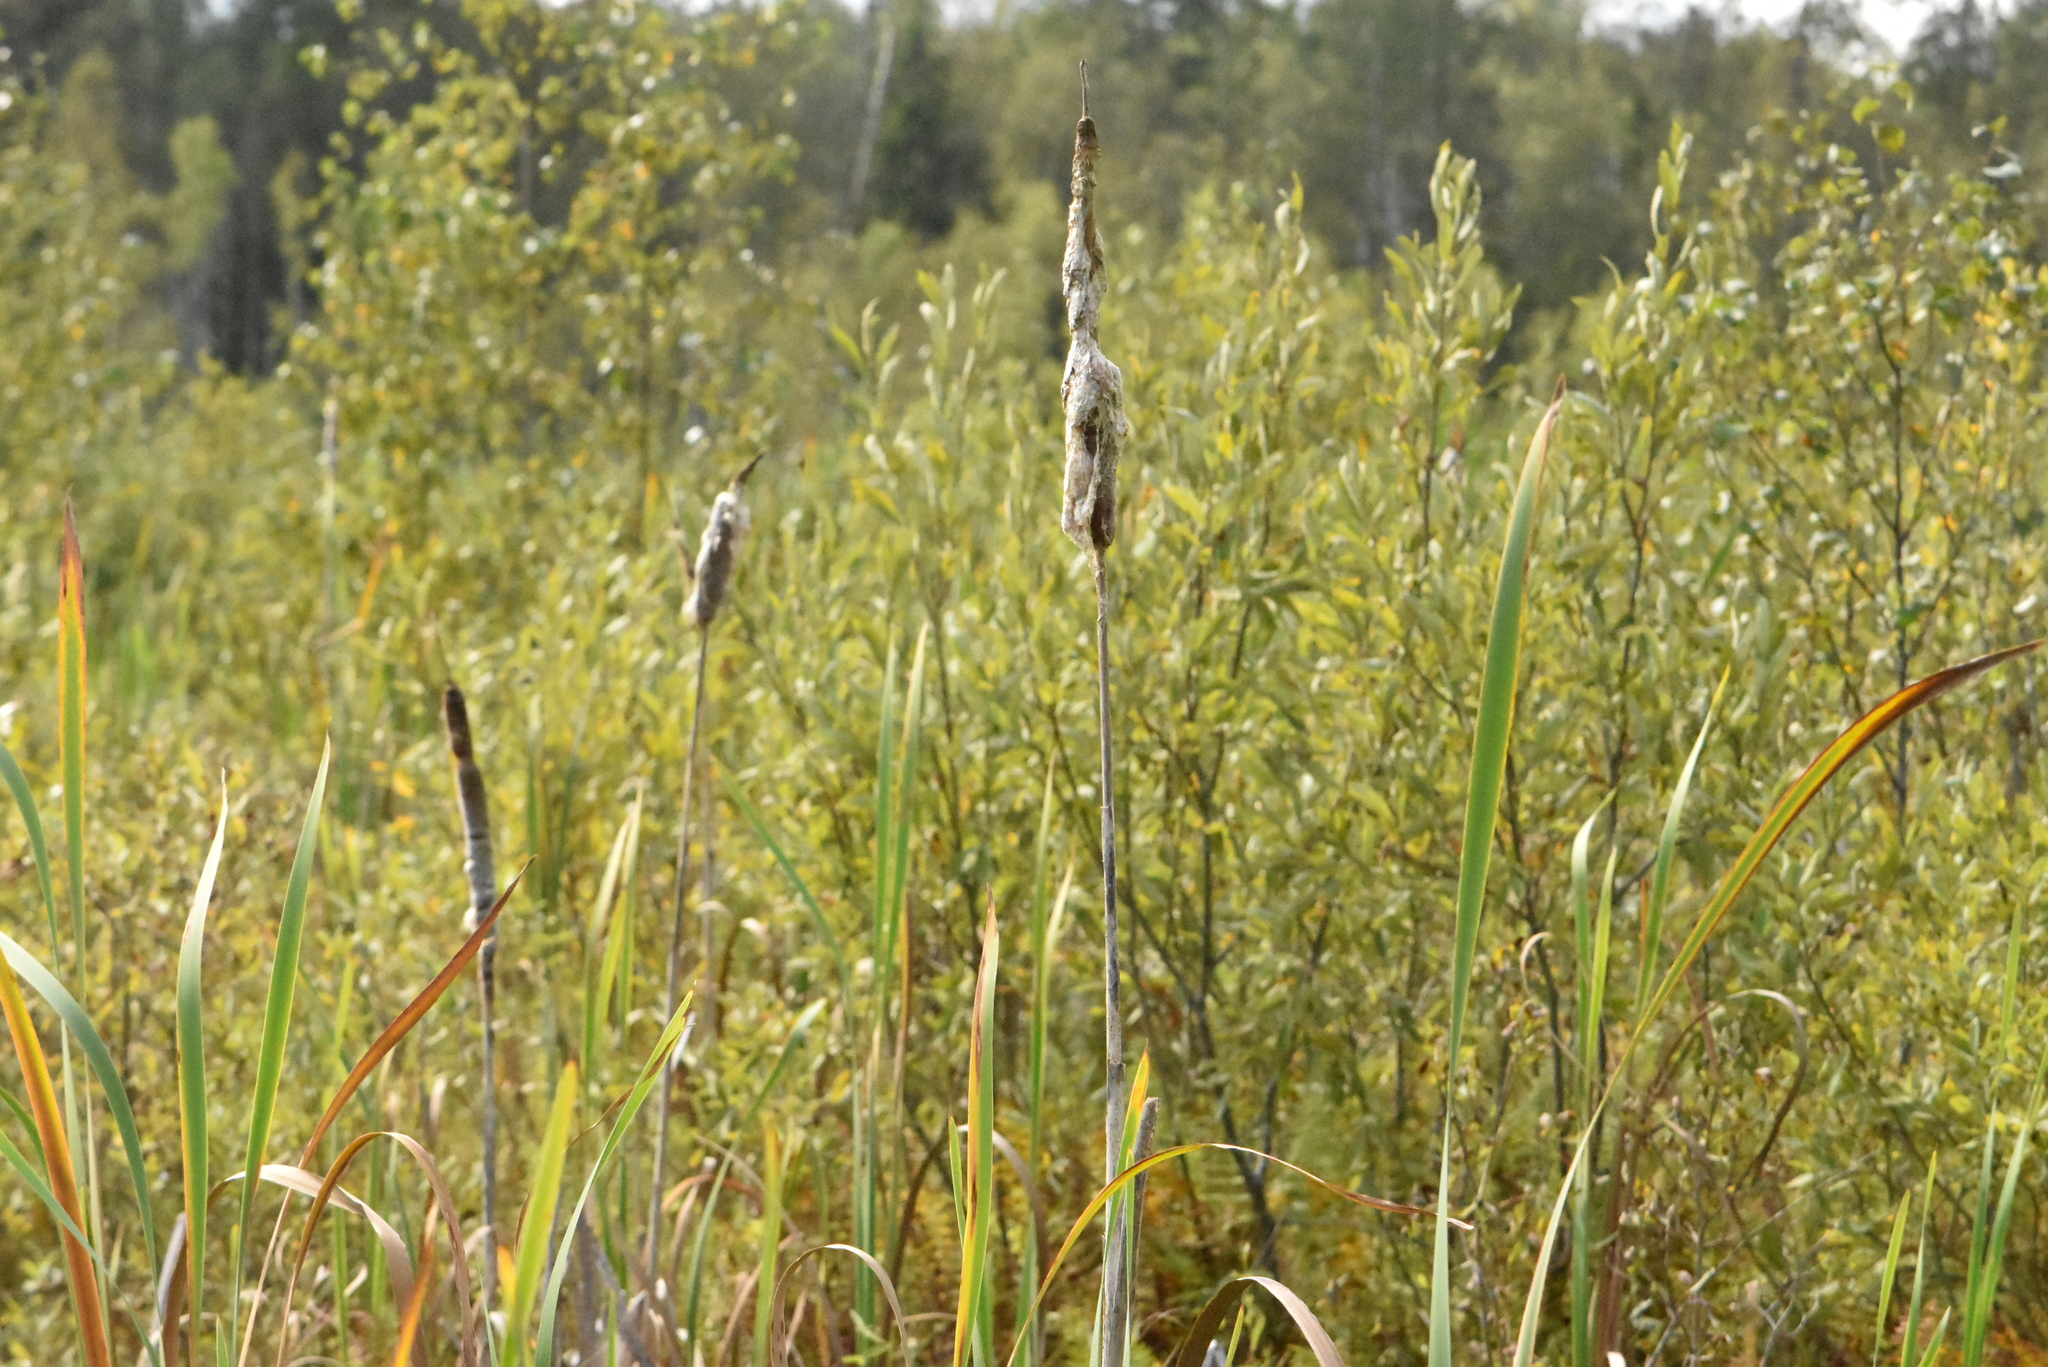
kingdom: Plantae
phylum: Tracheophyta
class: Liliopsida
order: Poales
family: Typhaceae
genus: Typha
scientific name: Typha latifolia
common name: Broadleaf cattail
